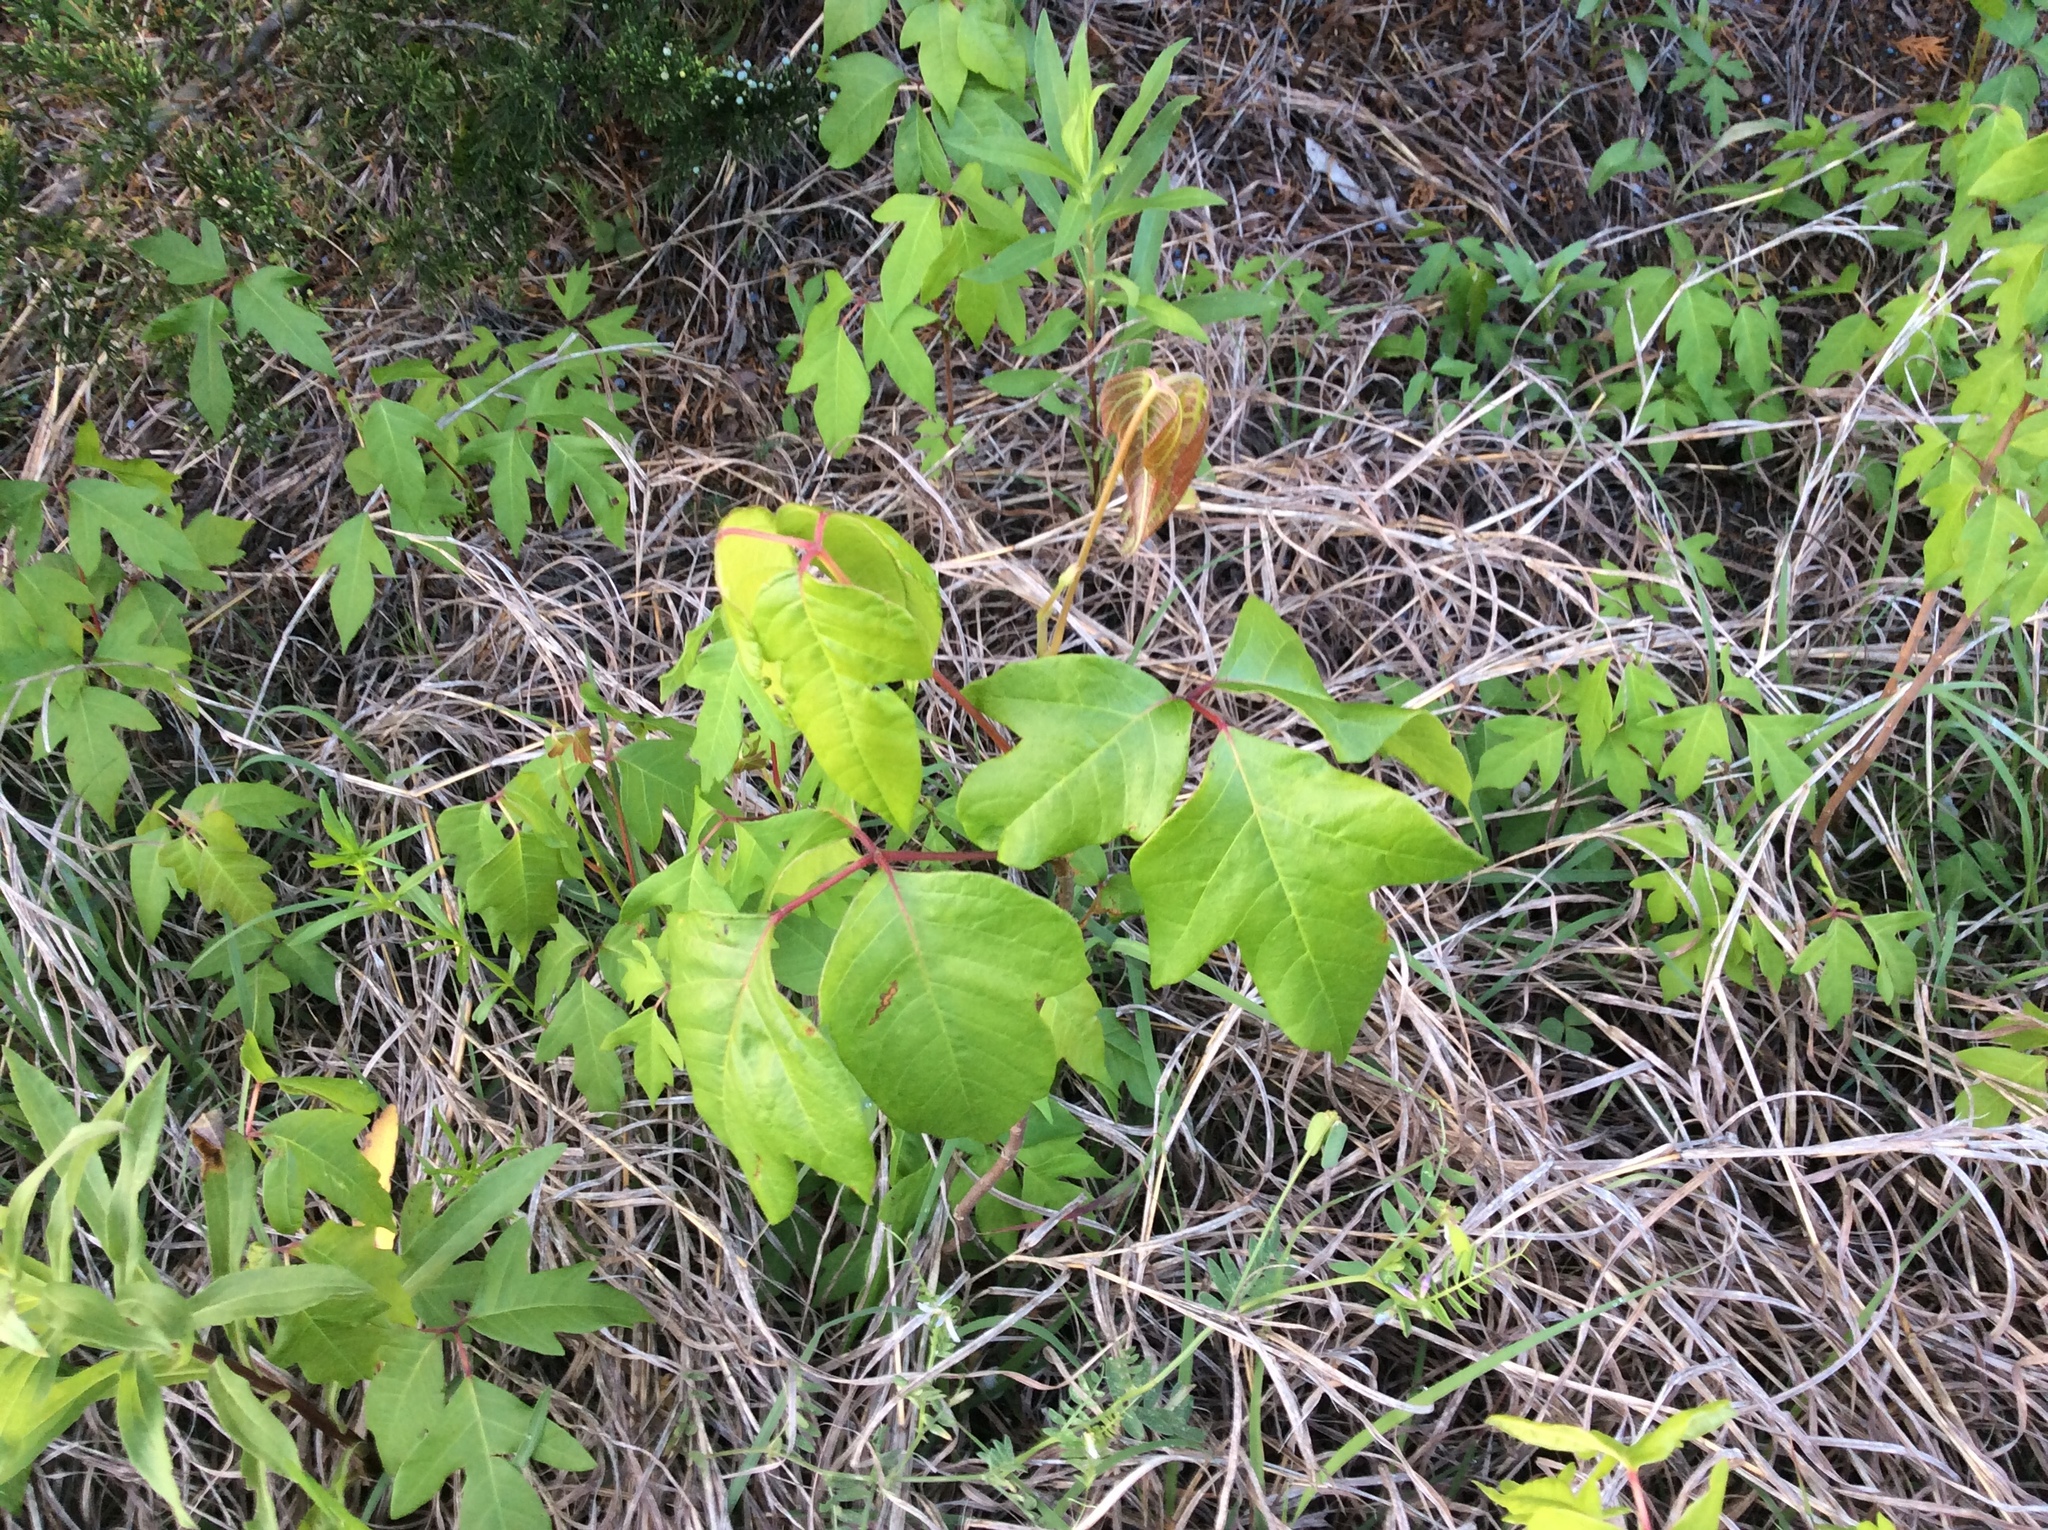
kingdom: Plantae
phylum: Tracheophyta
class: Magnoliopsida
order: Sapindales
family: Anacardiaceae
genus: Toxicodendron
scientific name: Toxicodendron radicans
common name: Poison ivy
